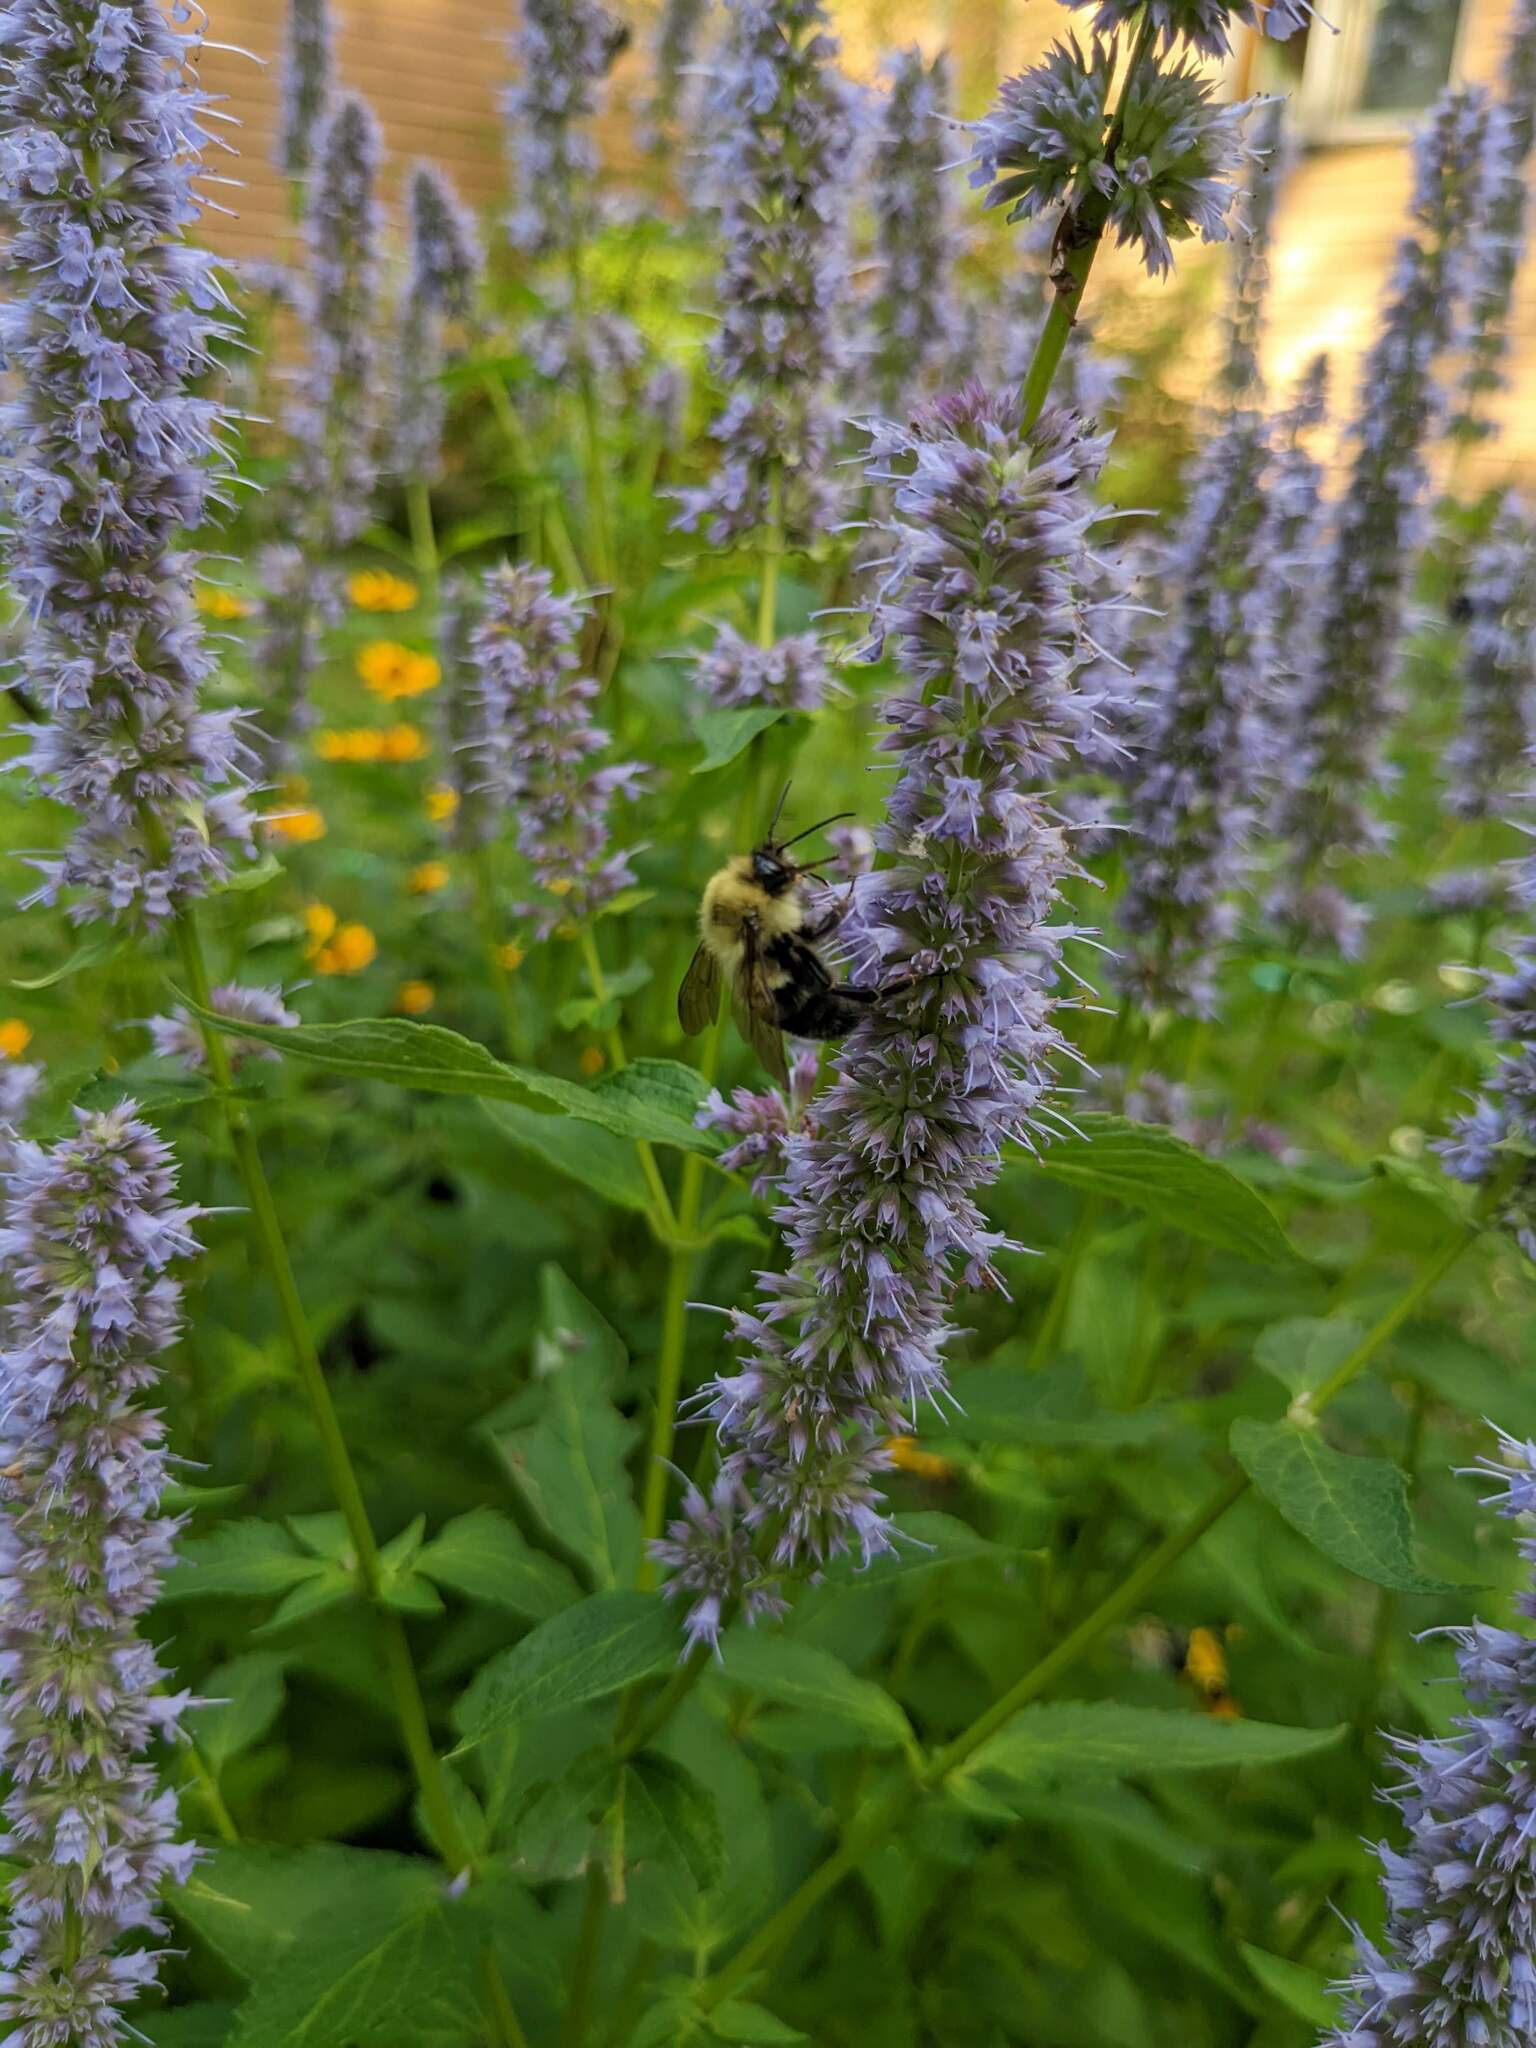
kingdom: Animalia
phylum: Arthropoda
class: Insecta
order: Hymenoptera
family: Apidae
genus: Bombus
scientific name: Bombus bimaculatus
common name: Two-spotted bumble bee
